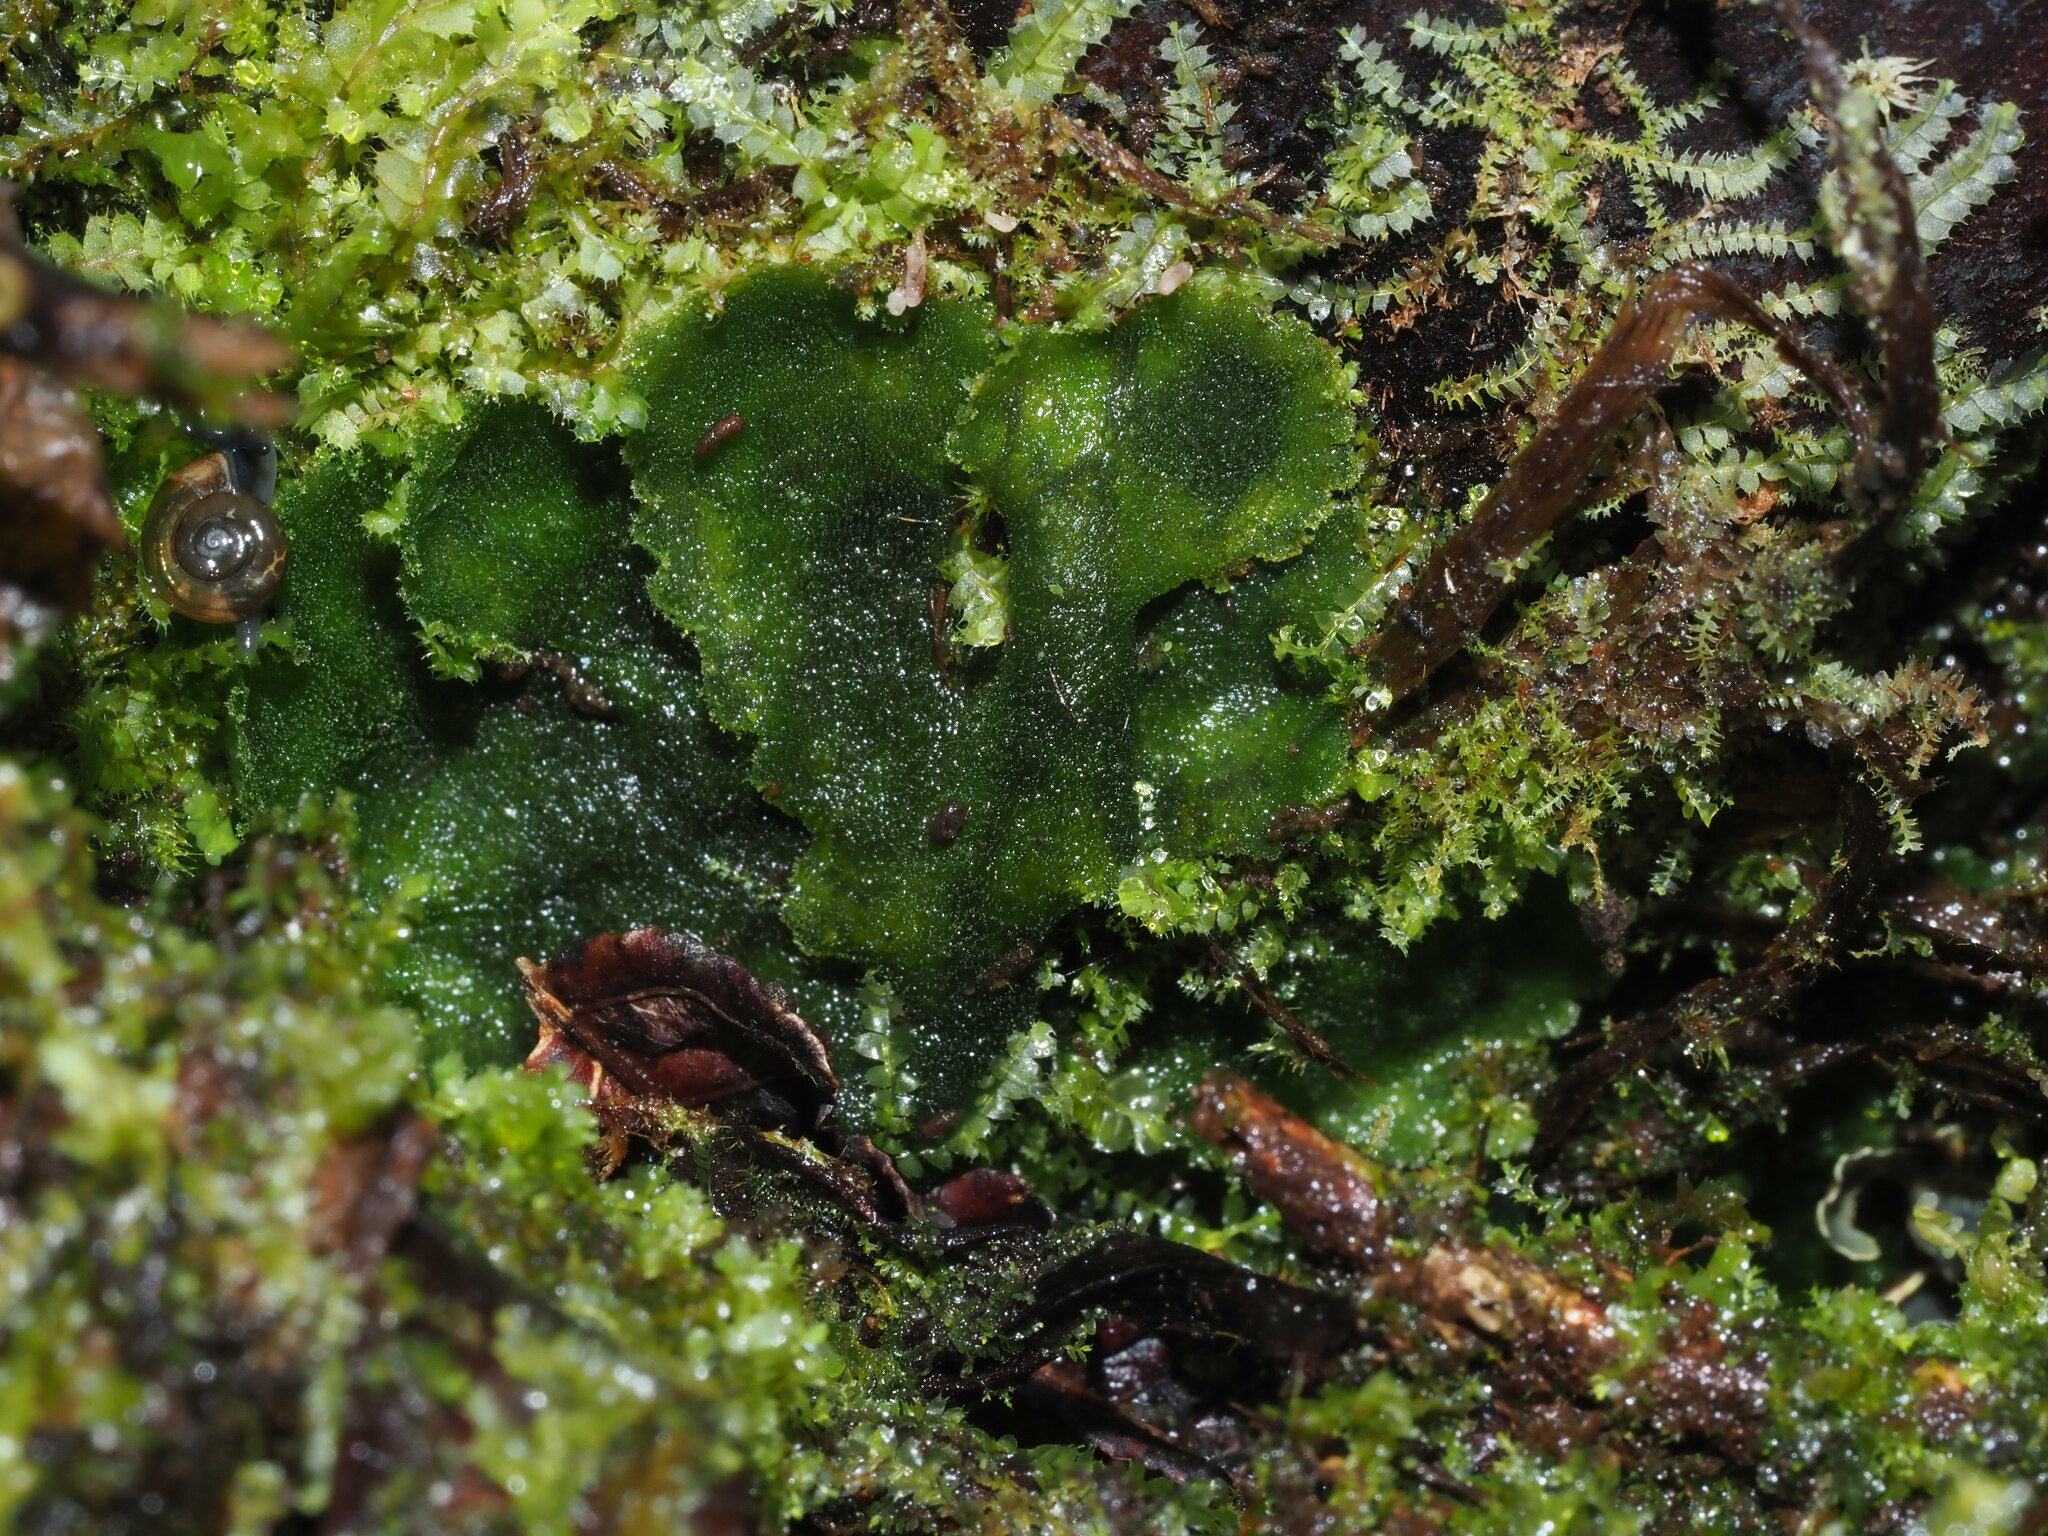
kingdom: Plantae
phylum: Anthocerotophyta
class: Anthocerotopsida
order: Dendrocerotales
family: Dendrocerotaceae
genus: Megaceros
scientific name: Megaceros flagellaris
